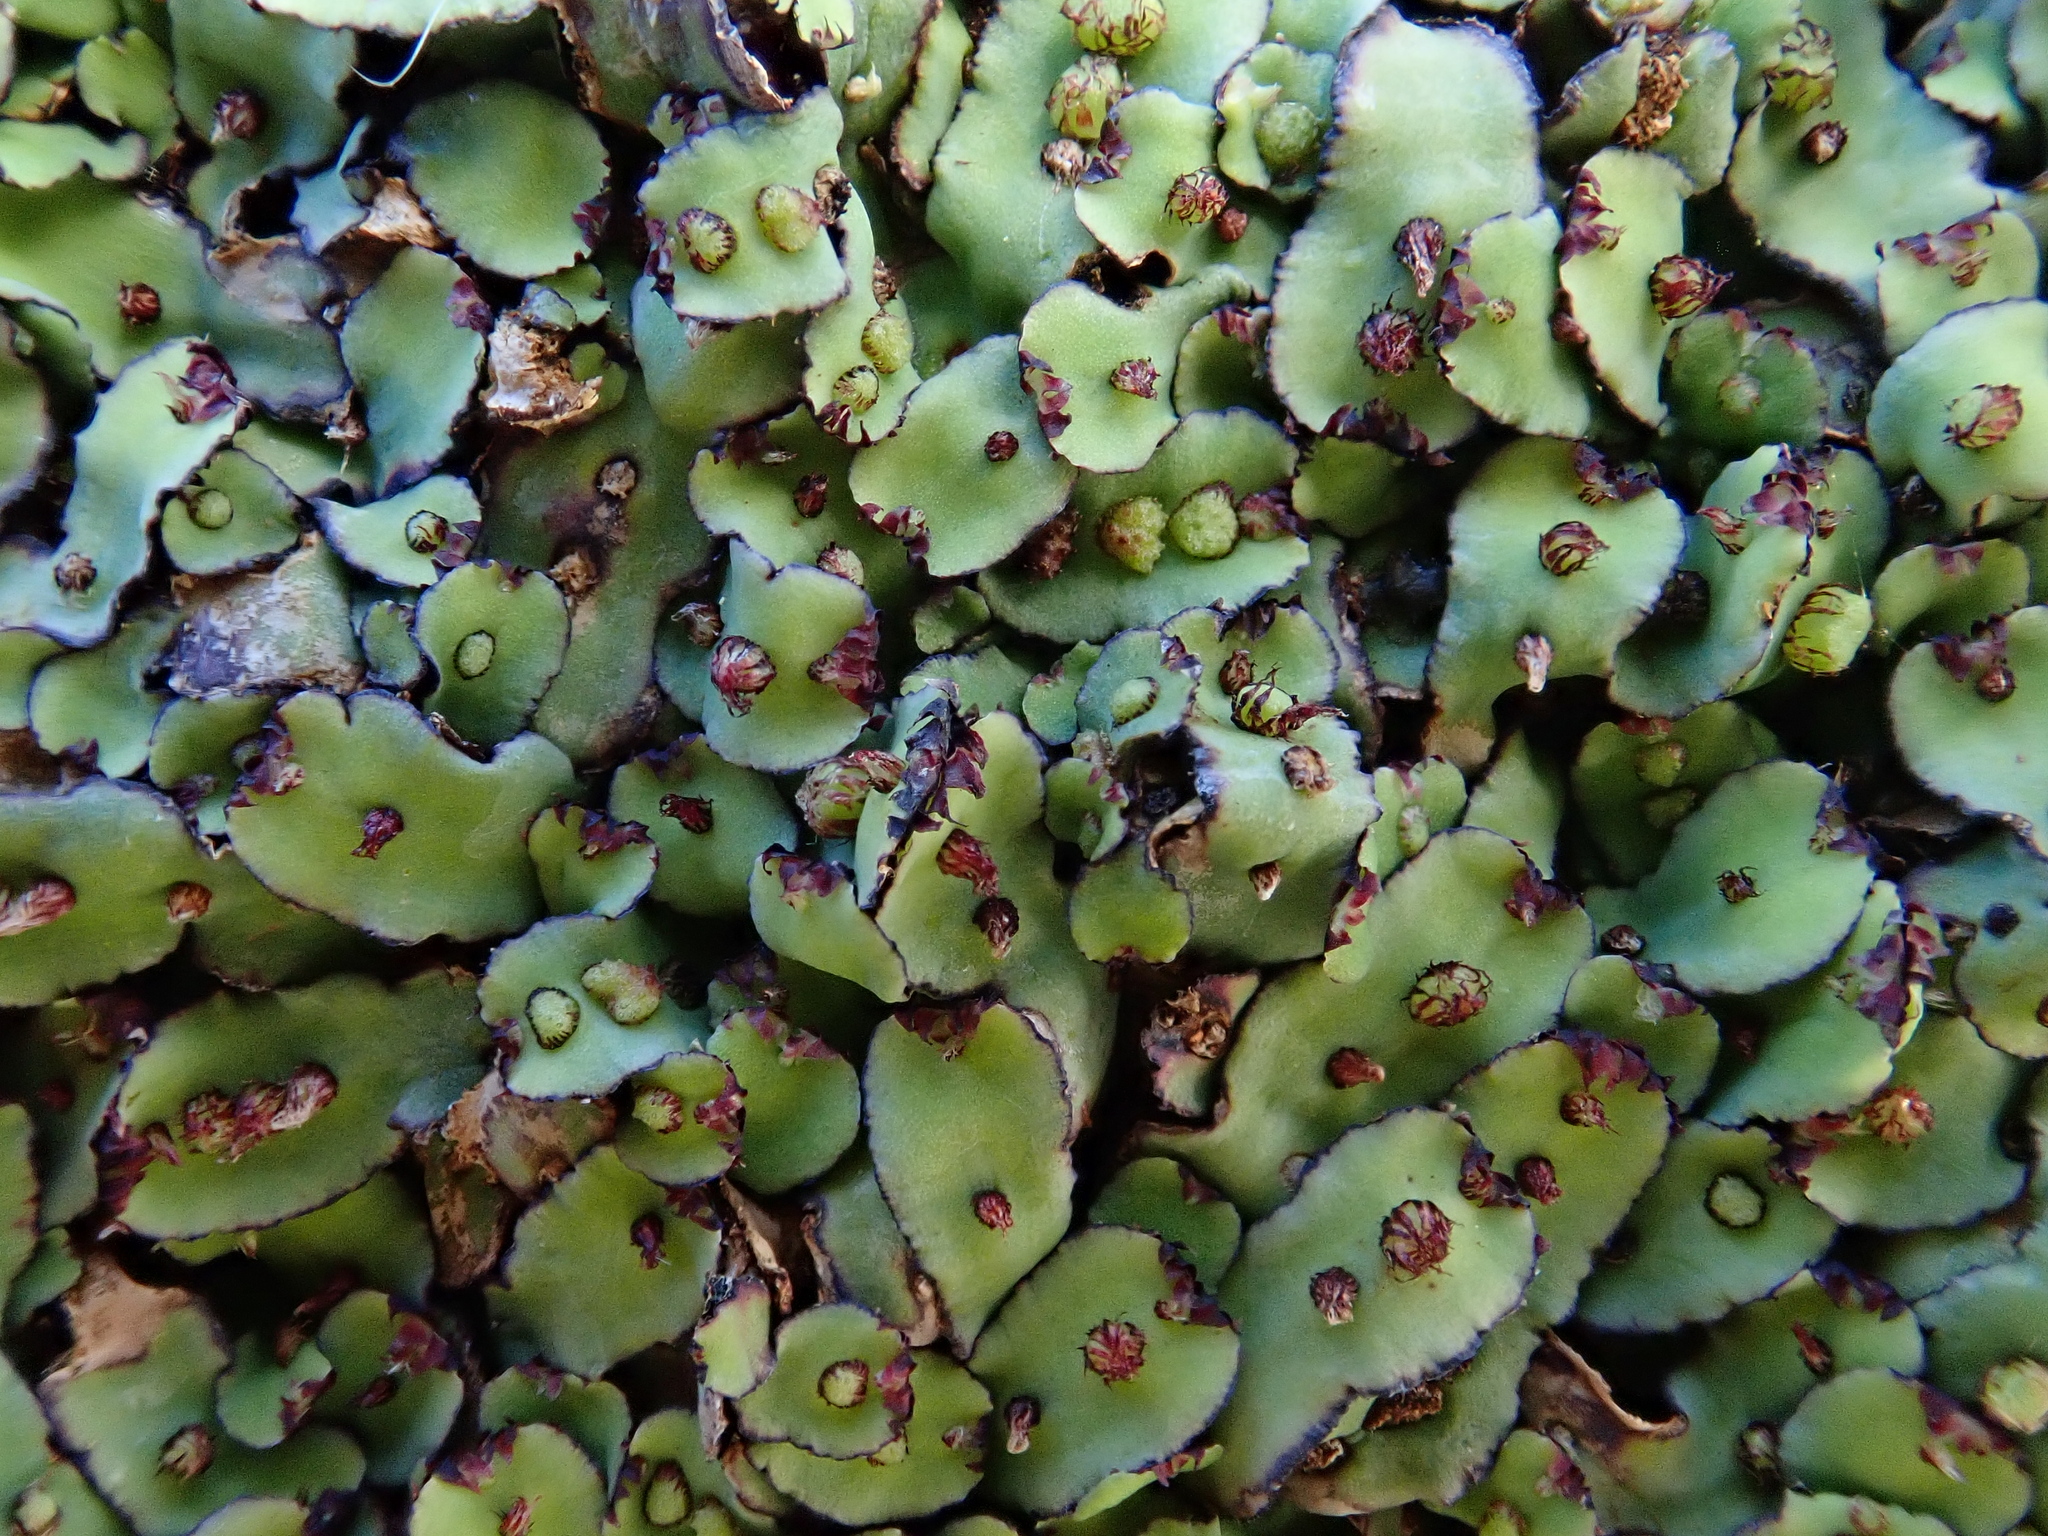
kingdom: Plantae
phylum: Marchantiophyta
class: Marchantiopsida
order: Marchantiales
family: Aytoniaceae
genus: Plagiochasma
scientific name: Plagiochasma rupestre
